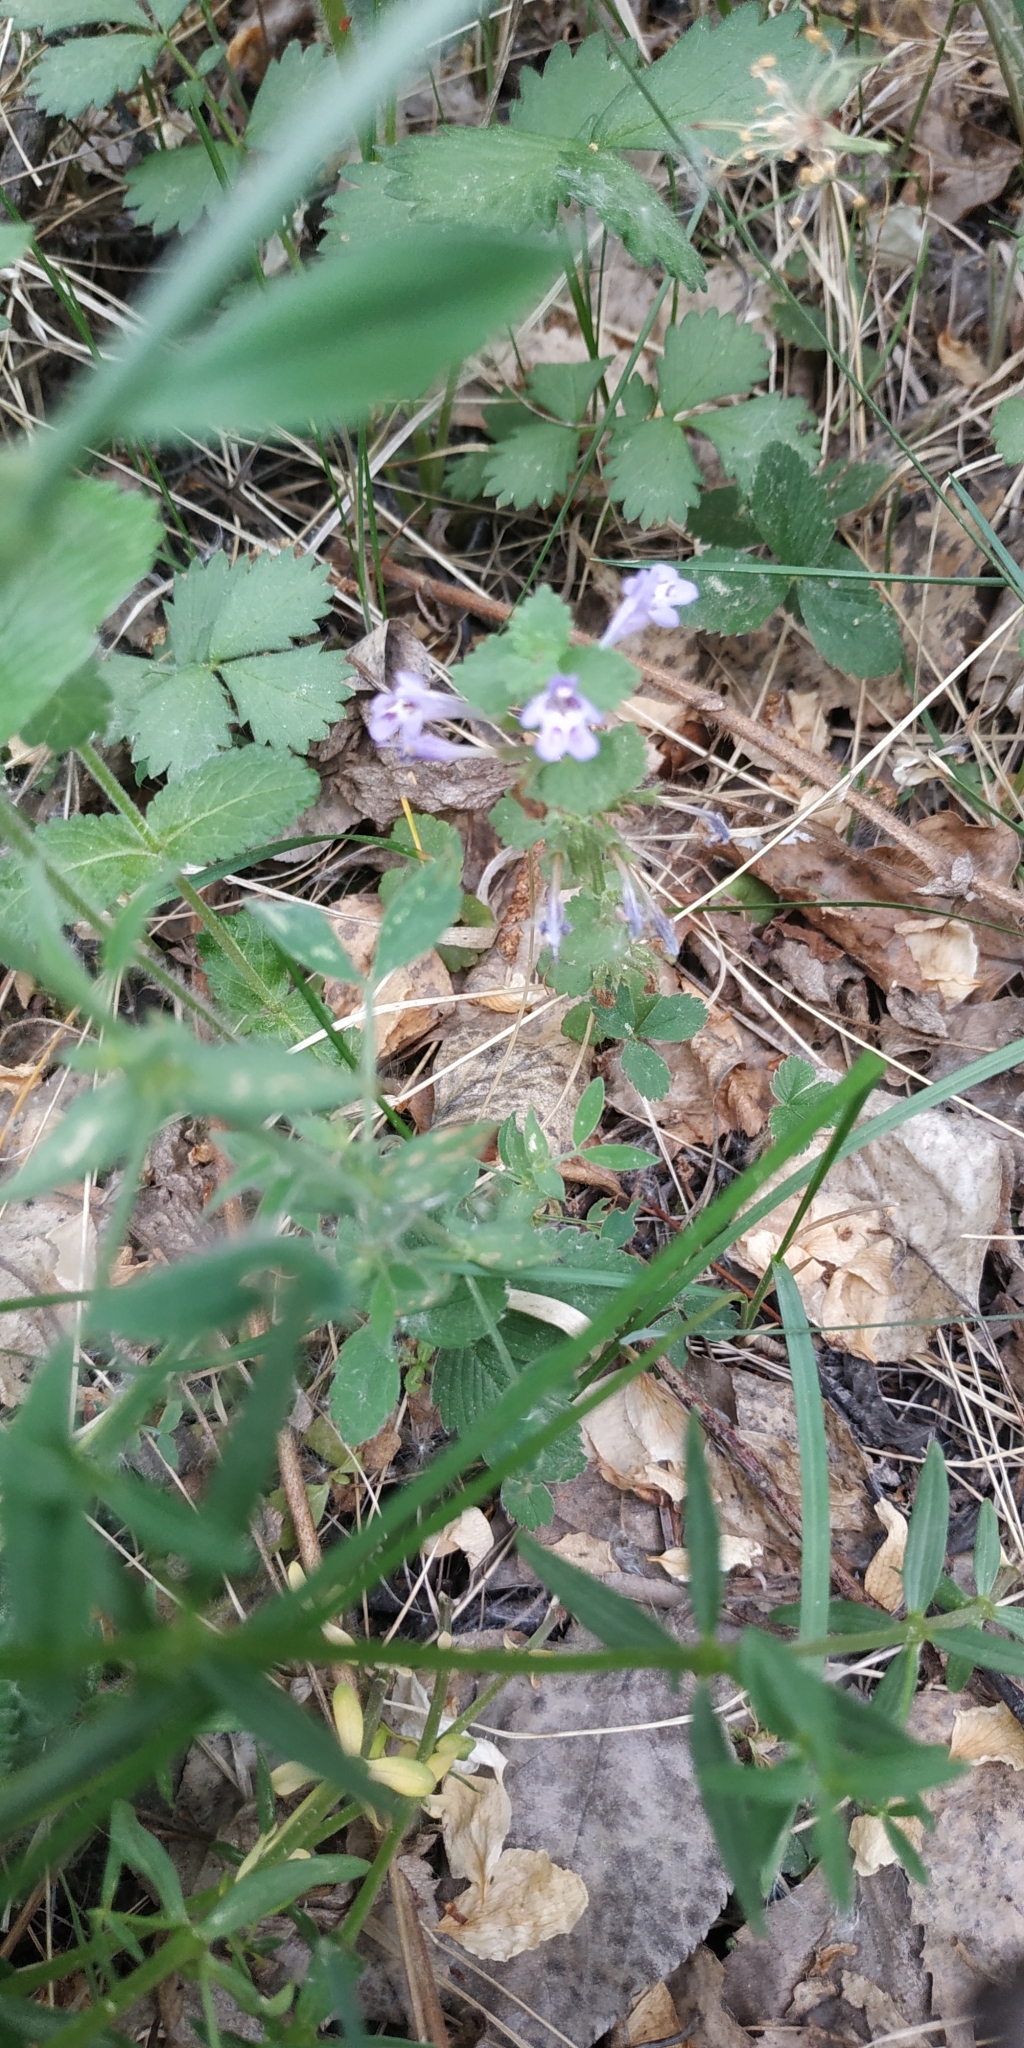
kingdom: Plantae
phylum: Tracheophyta
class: Magnoliopsida
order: Lamiales
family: Lamiaceae
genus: Glechoma
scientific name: Glechoma hederacea
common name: Ground ivy
